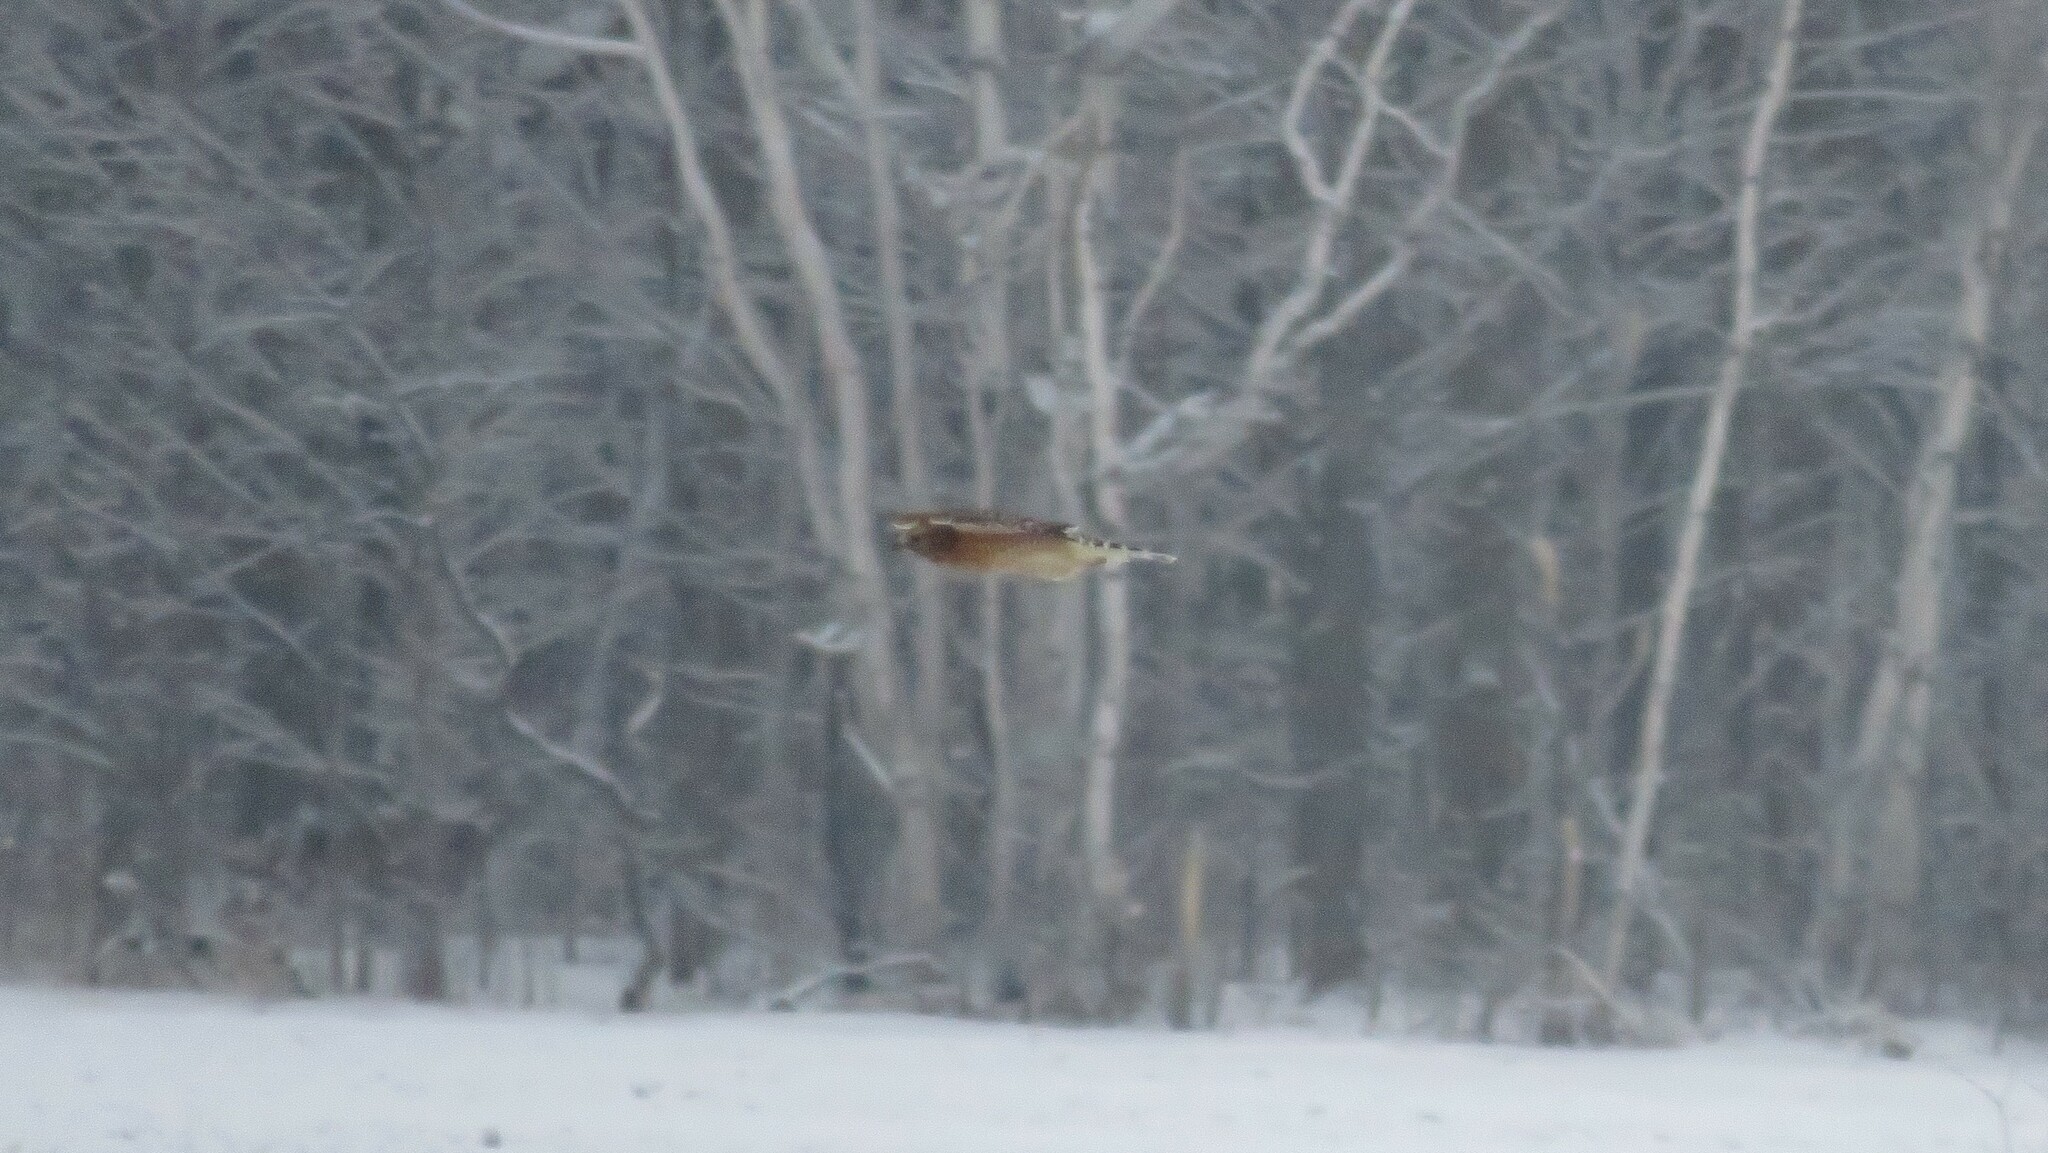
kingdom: Animalia
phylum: Chordata
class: Aves
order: Accipitriformes
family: Accipitridae
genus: Buteo
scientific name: Buteo lineatus
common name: Red-shouldered hawk
